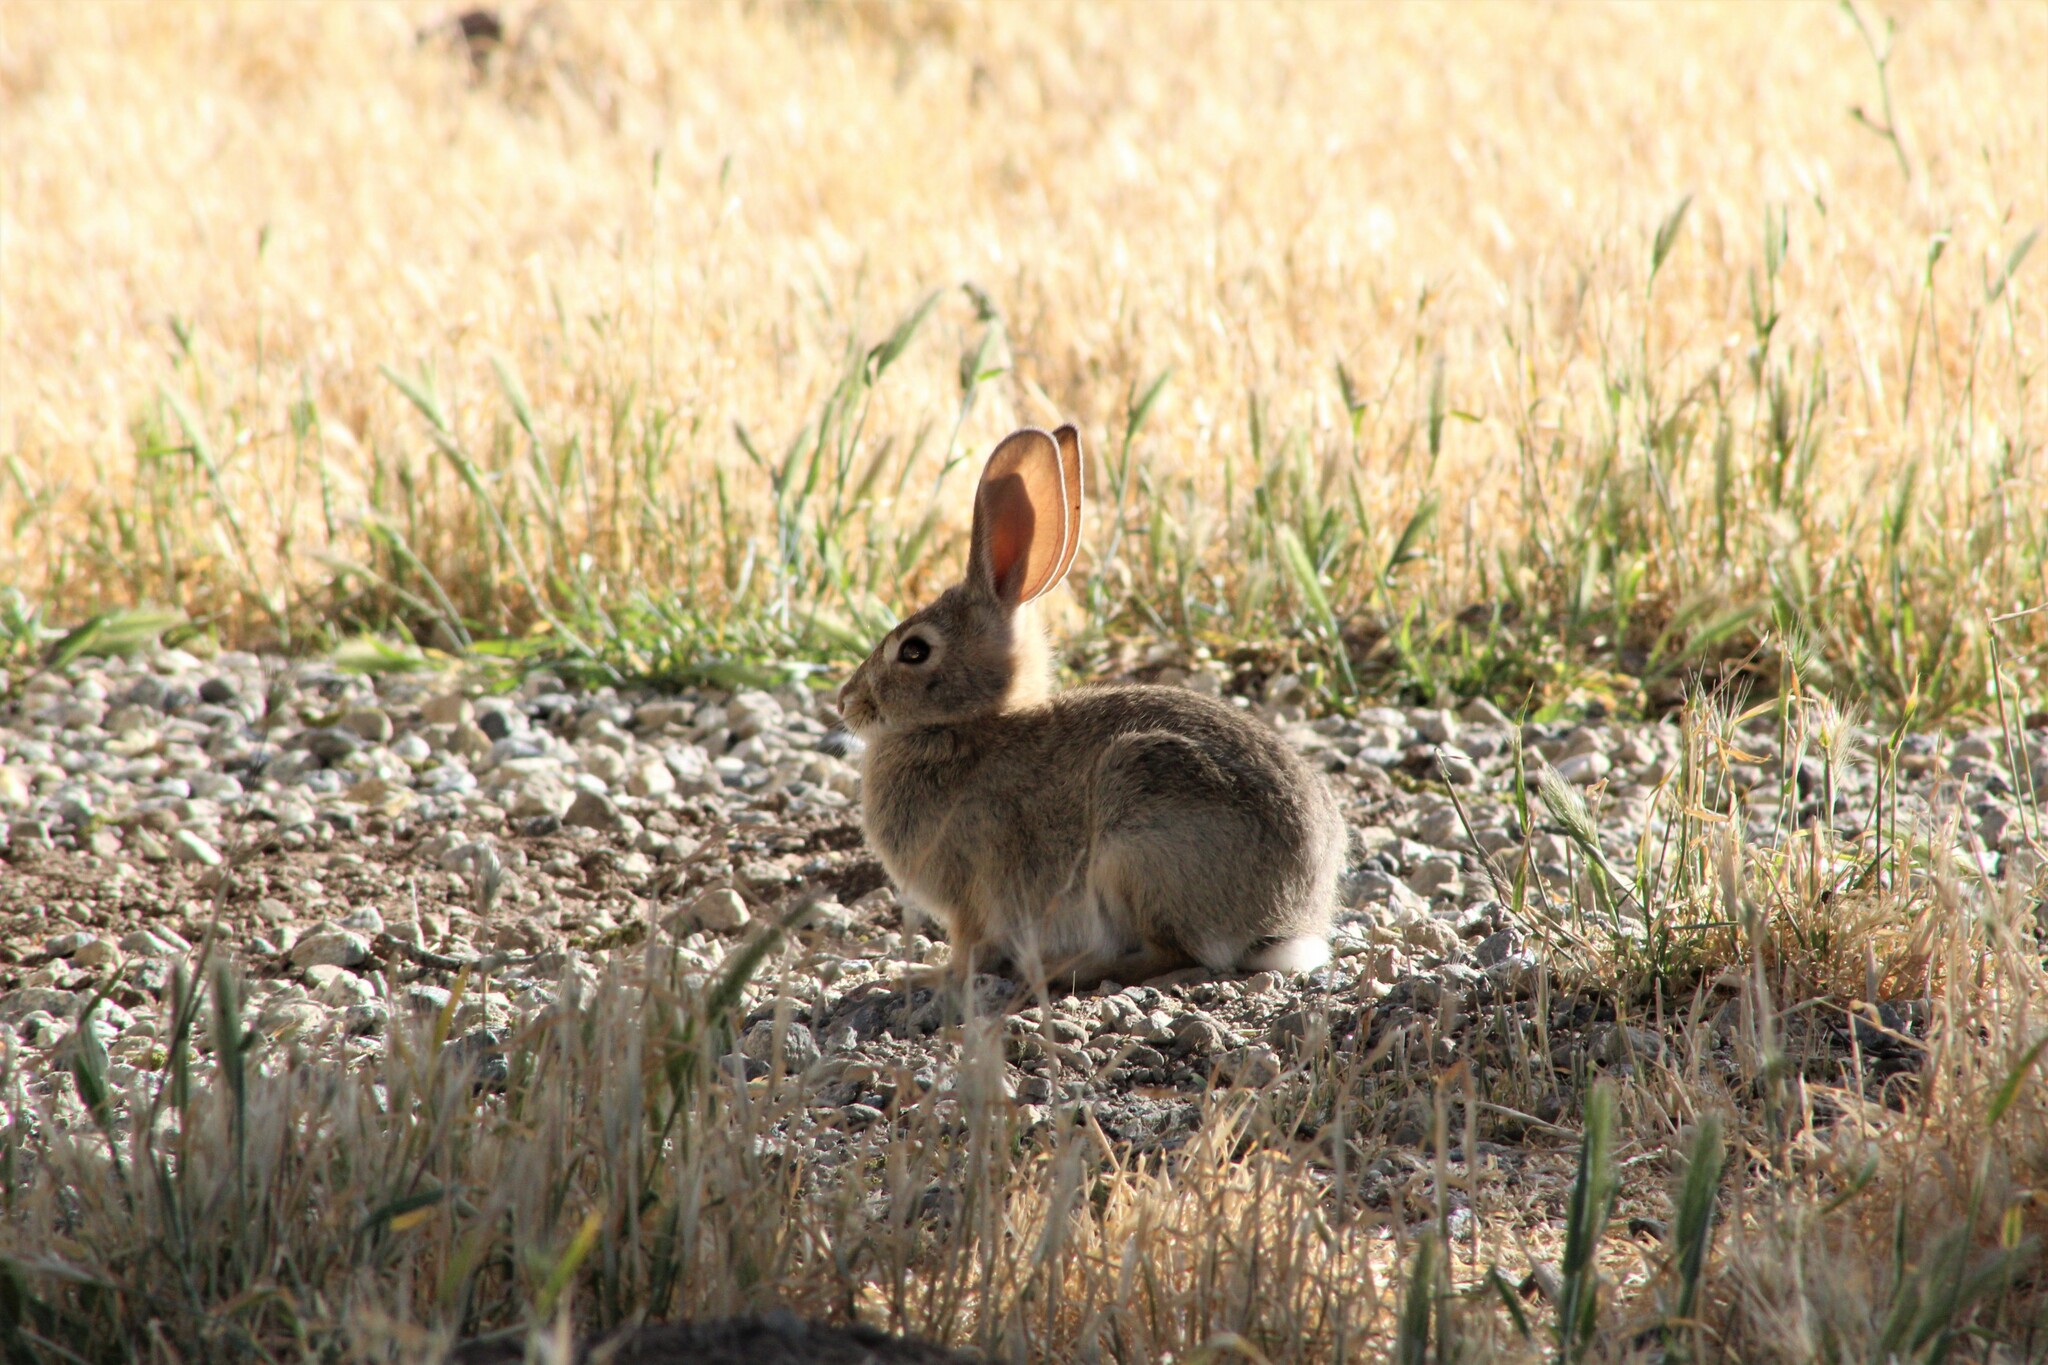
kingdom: Animalia
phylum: Chordata
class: Mammalia
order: Lagomorpha
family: Leporidae
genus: Sylvilagus
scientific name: Sylvilagus audubonii
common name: Desert cottontail
